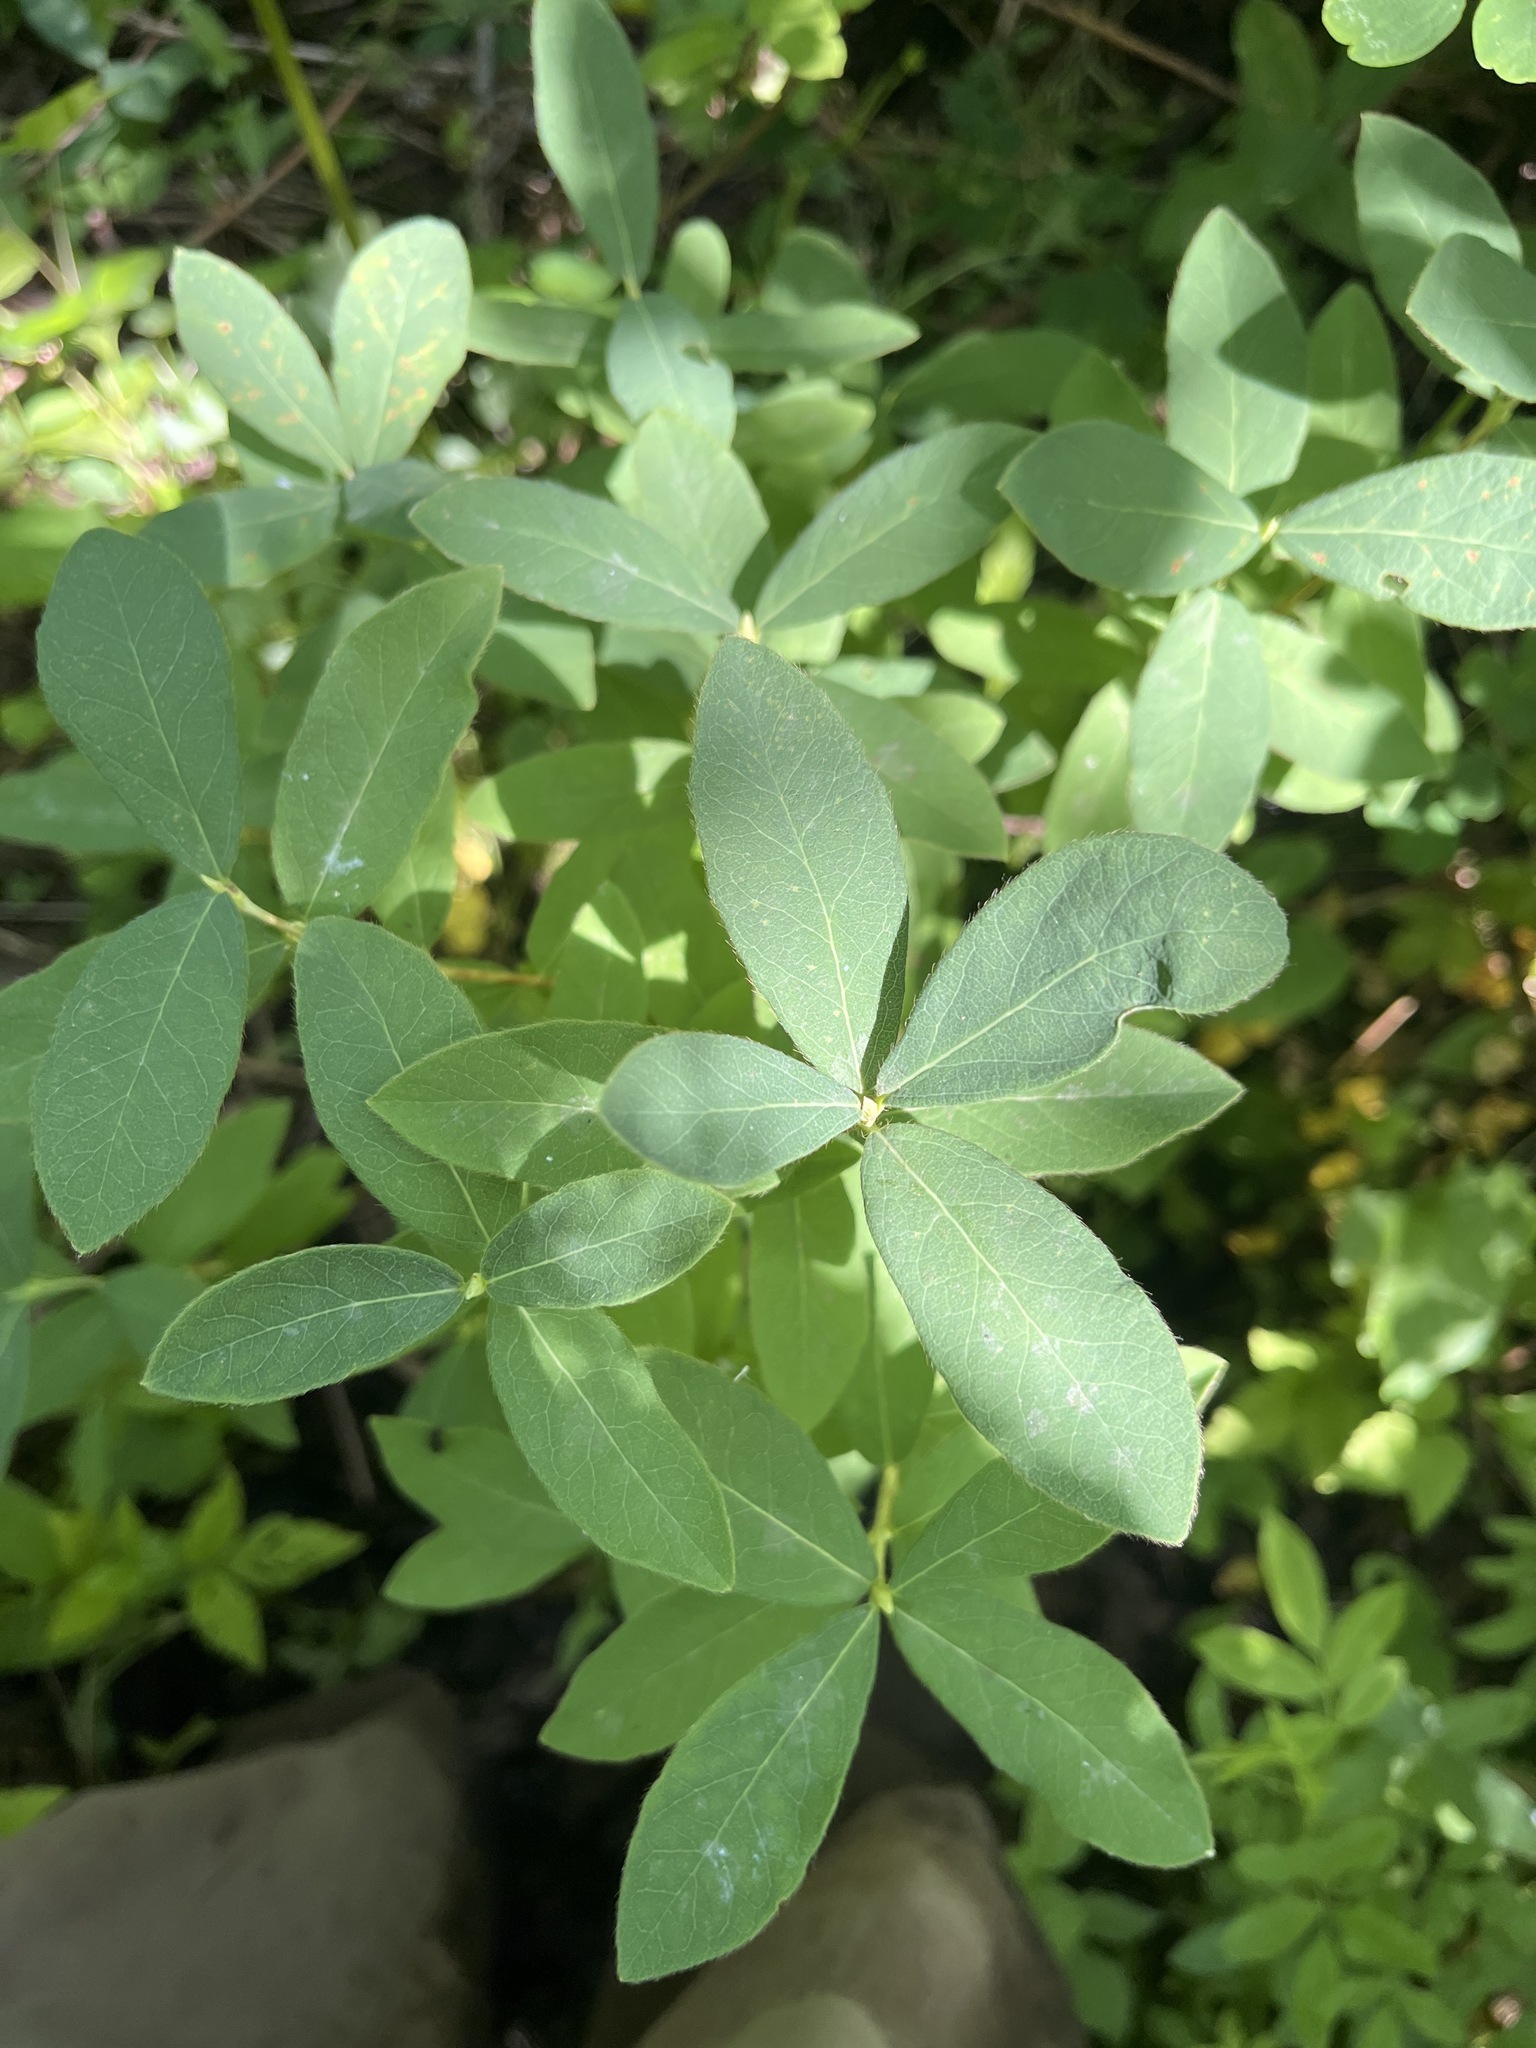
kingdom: Plantae
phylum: Tracheophyta
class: Magnoliopsida
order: Dipsacales
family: Caprifoliaceae
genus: Lonicera
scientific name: Lonicera villosa
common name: Mountain fly-honeysuckle
